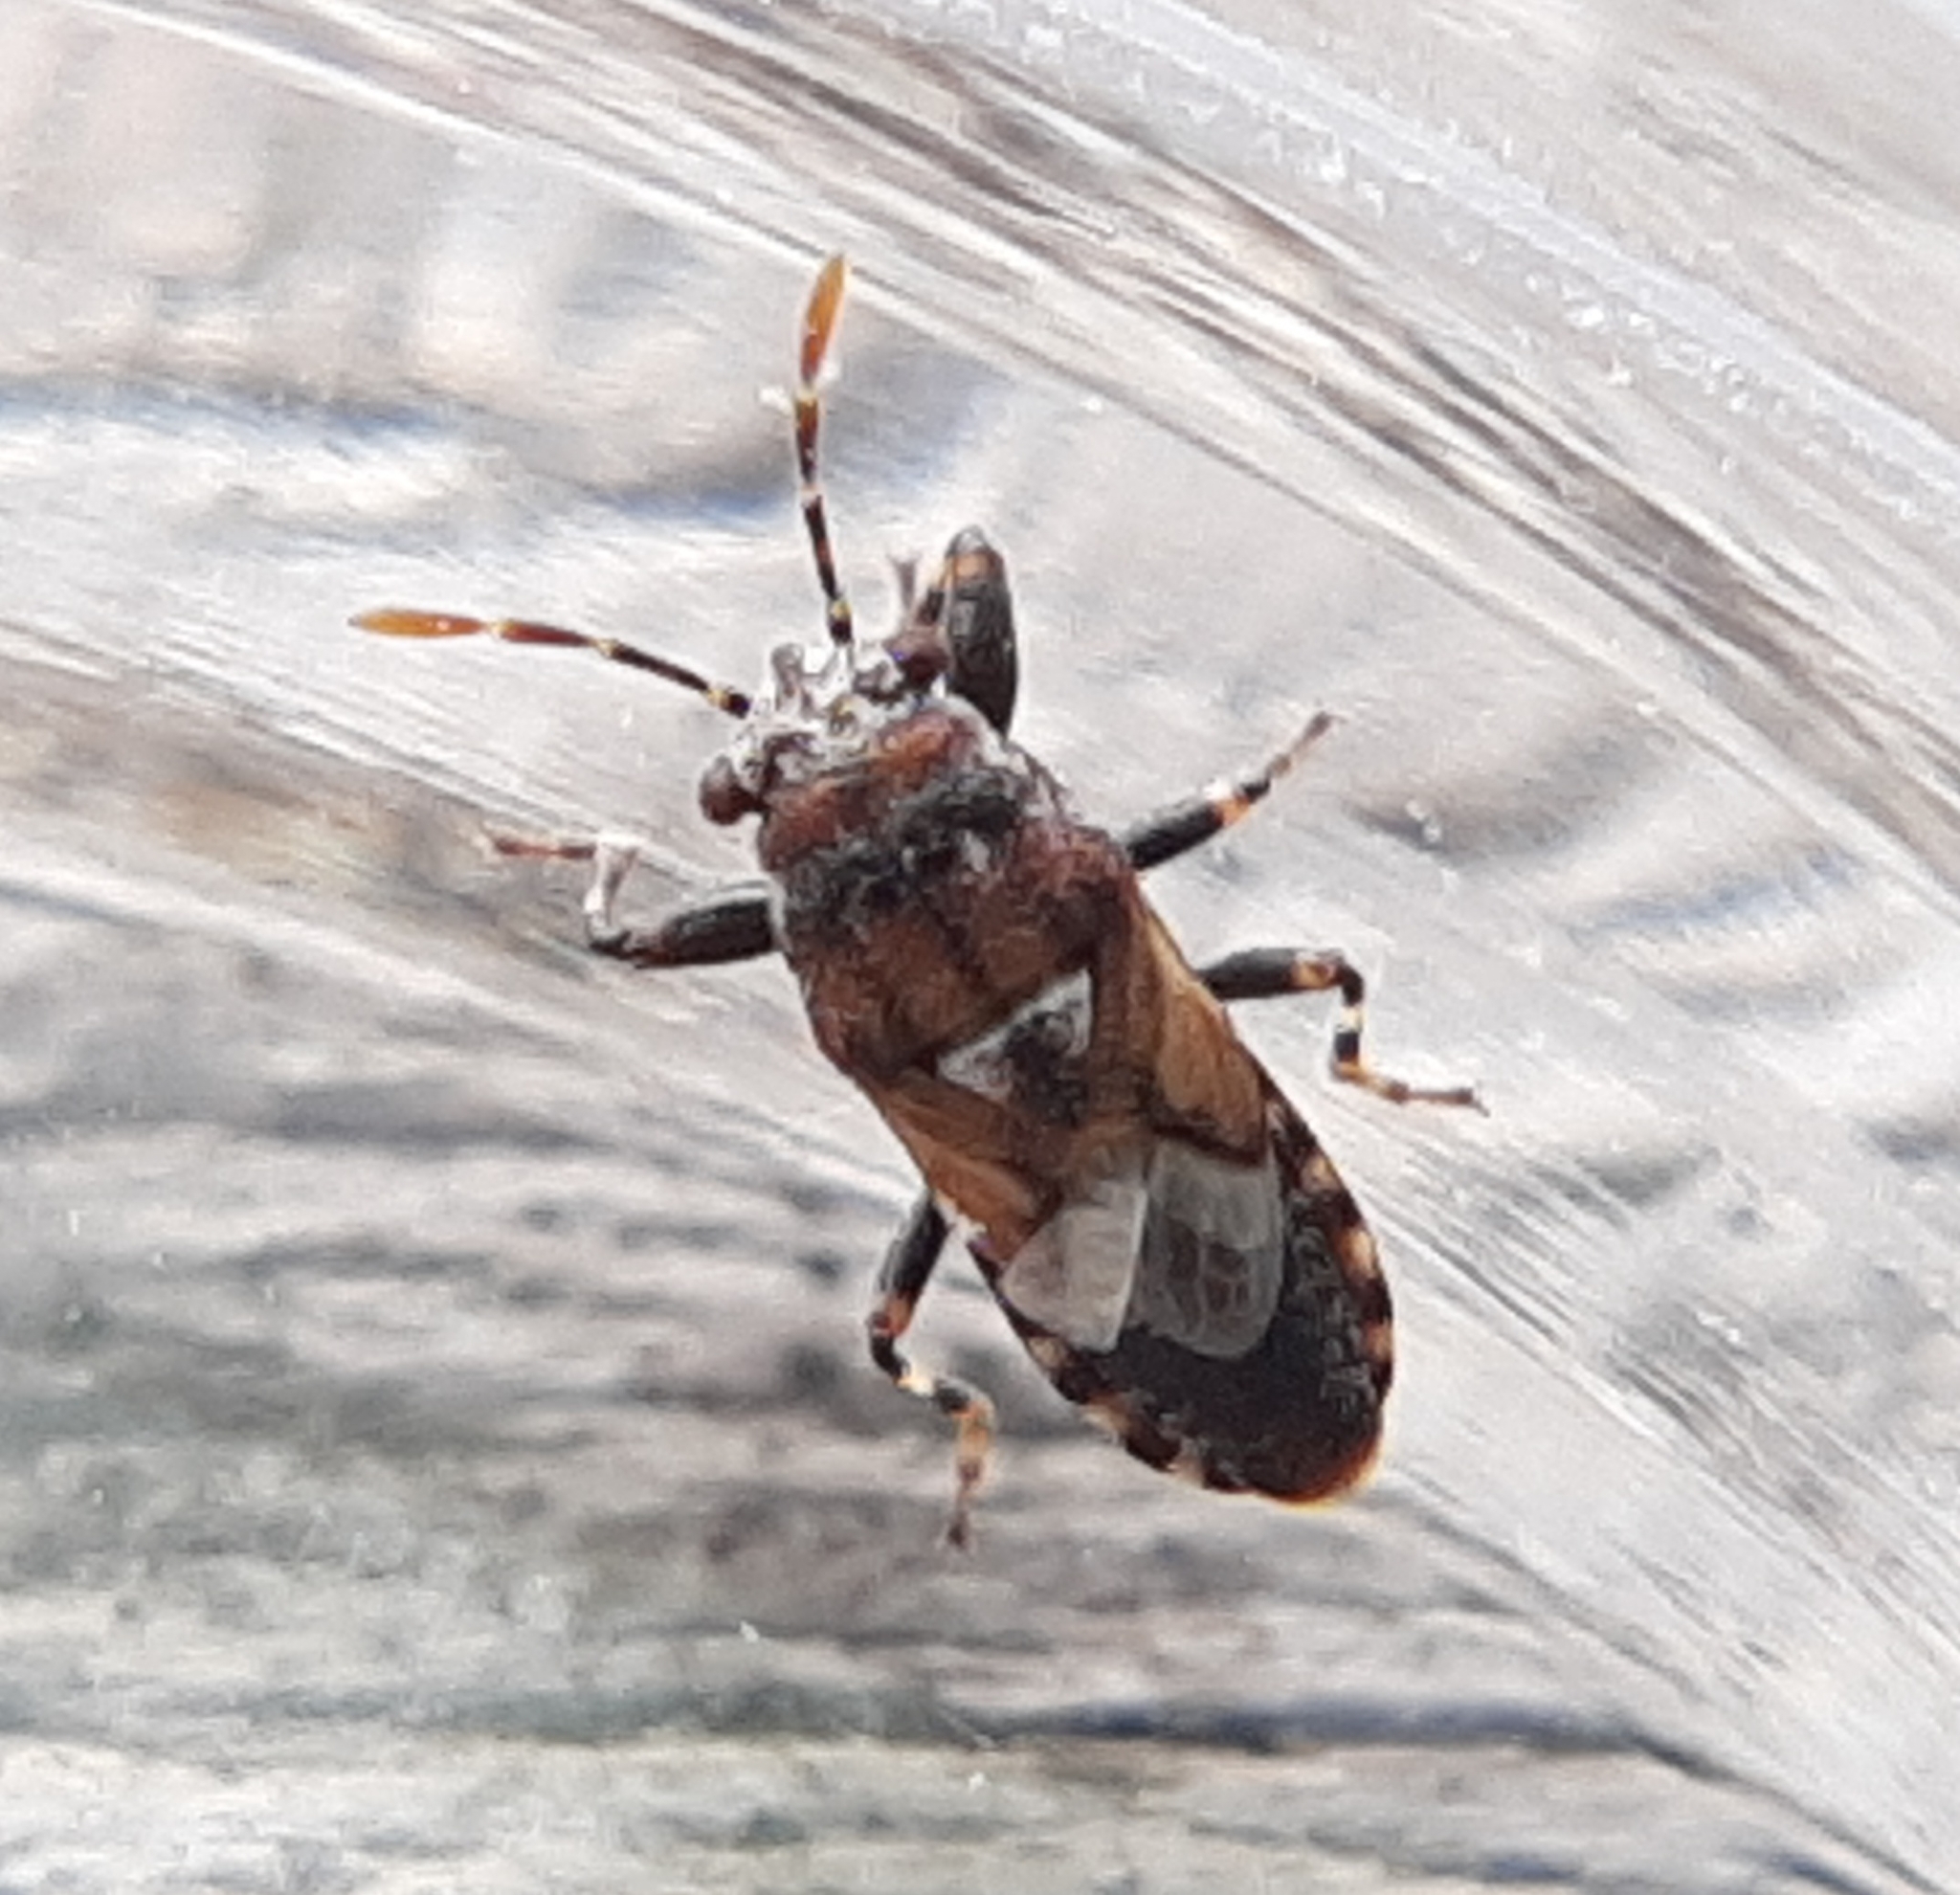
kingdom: Animalia
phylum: Arthropoda
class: Insecta
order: Hemiptera
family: Pachygronthidae
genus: Phlegyas
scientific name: Phlegyas abbreviatus
